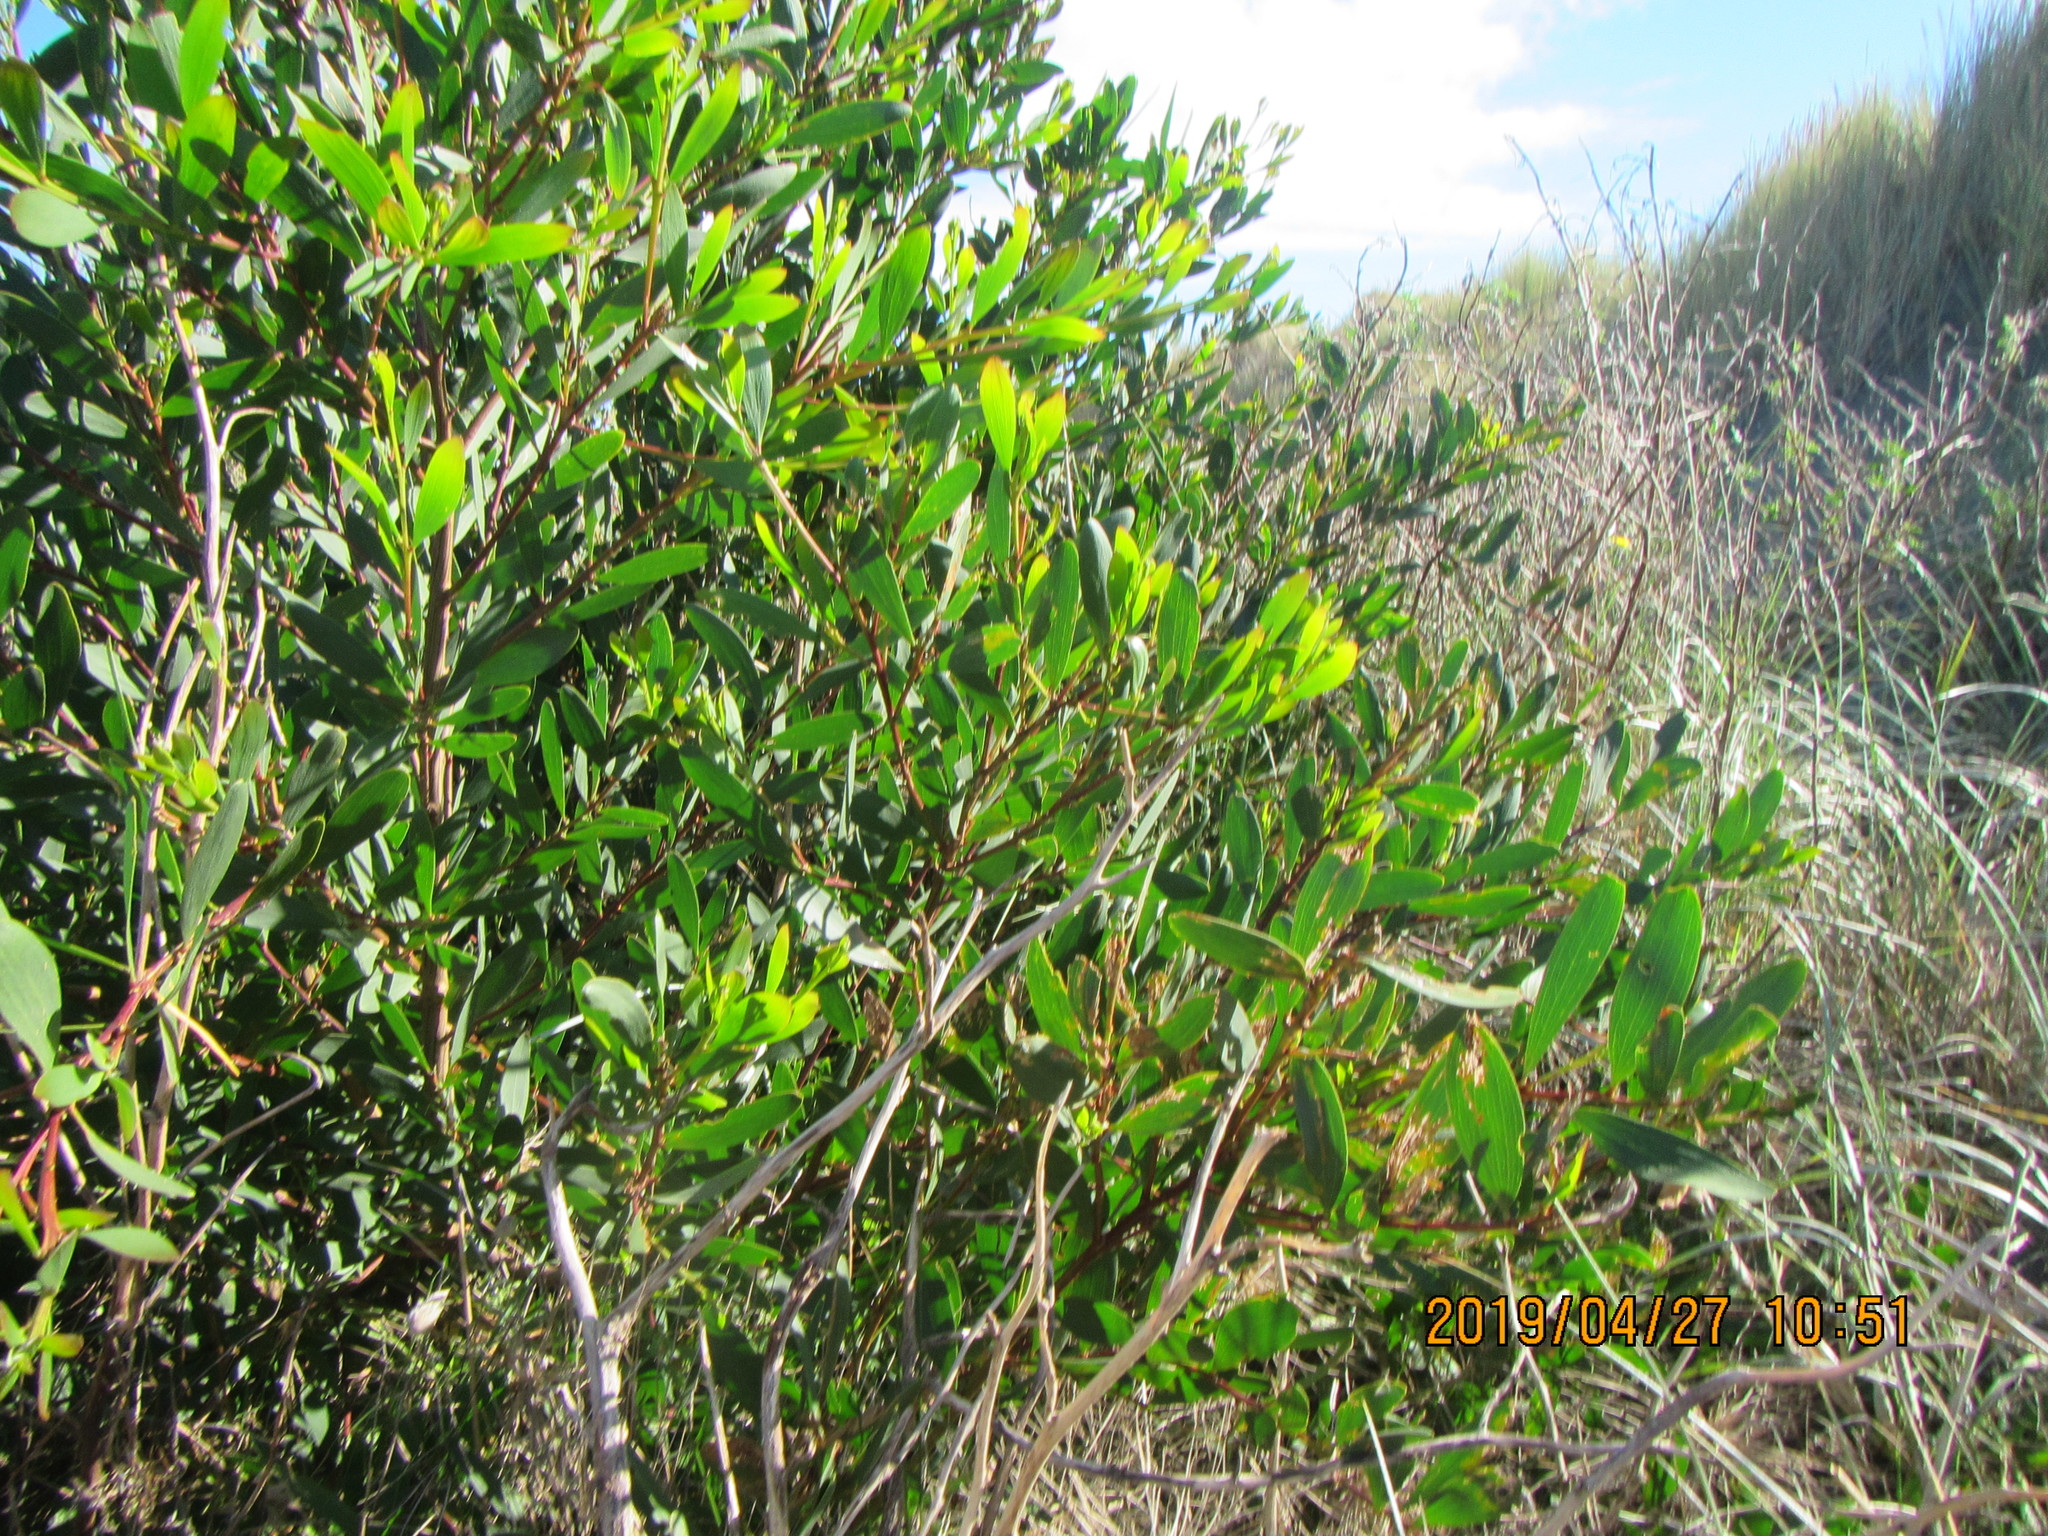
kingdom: Plantae
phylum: Tracheophyta
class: Magnoliopsida
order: Fabales
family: Fabaceae
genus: Acacia
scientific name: Acacia longifolia
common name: Sydney golden wattle
